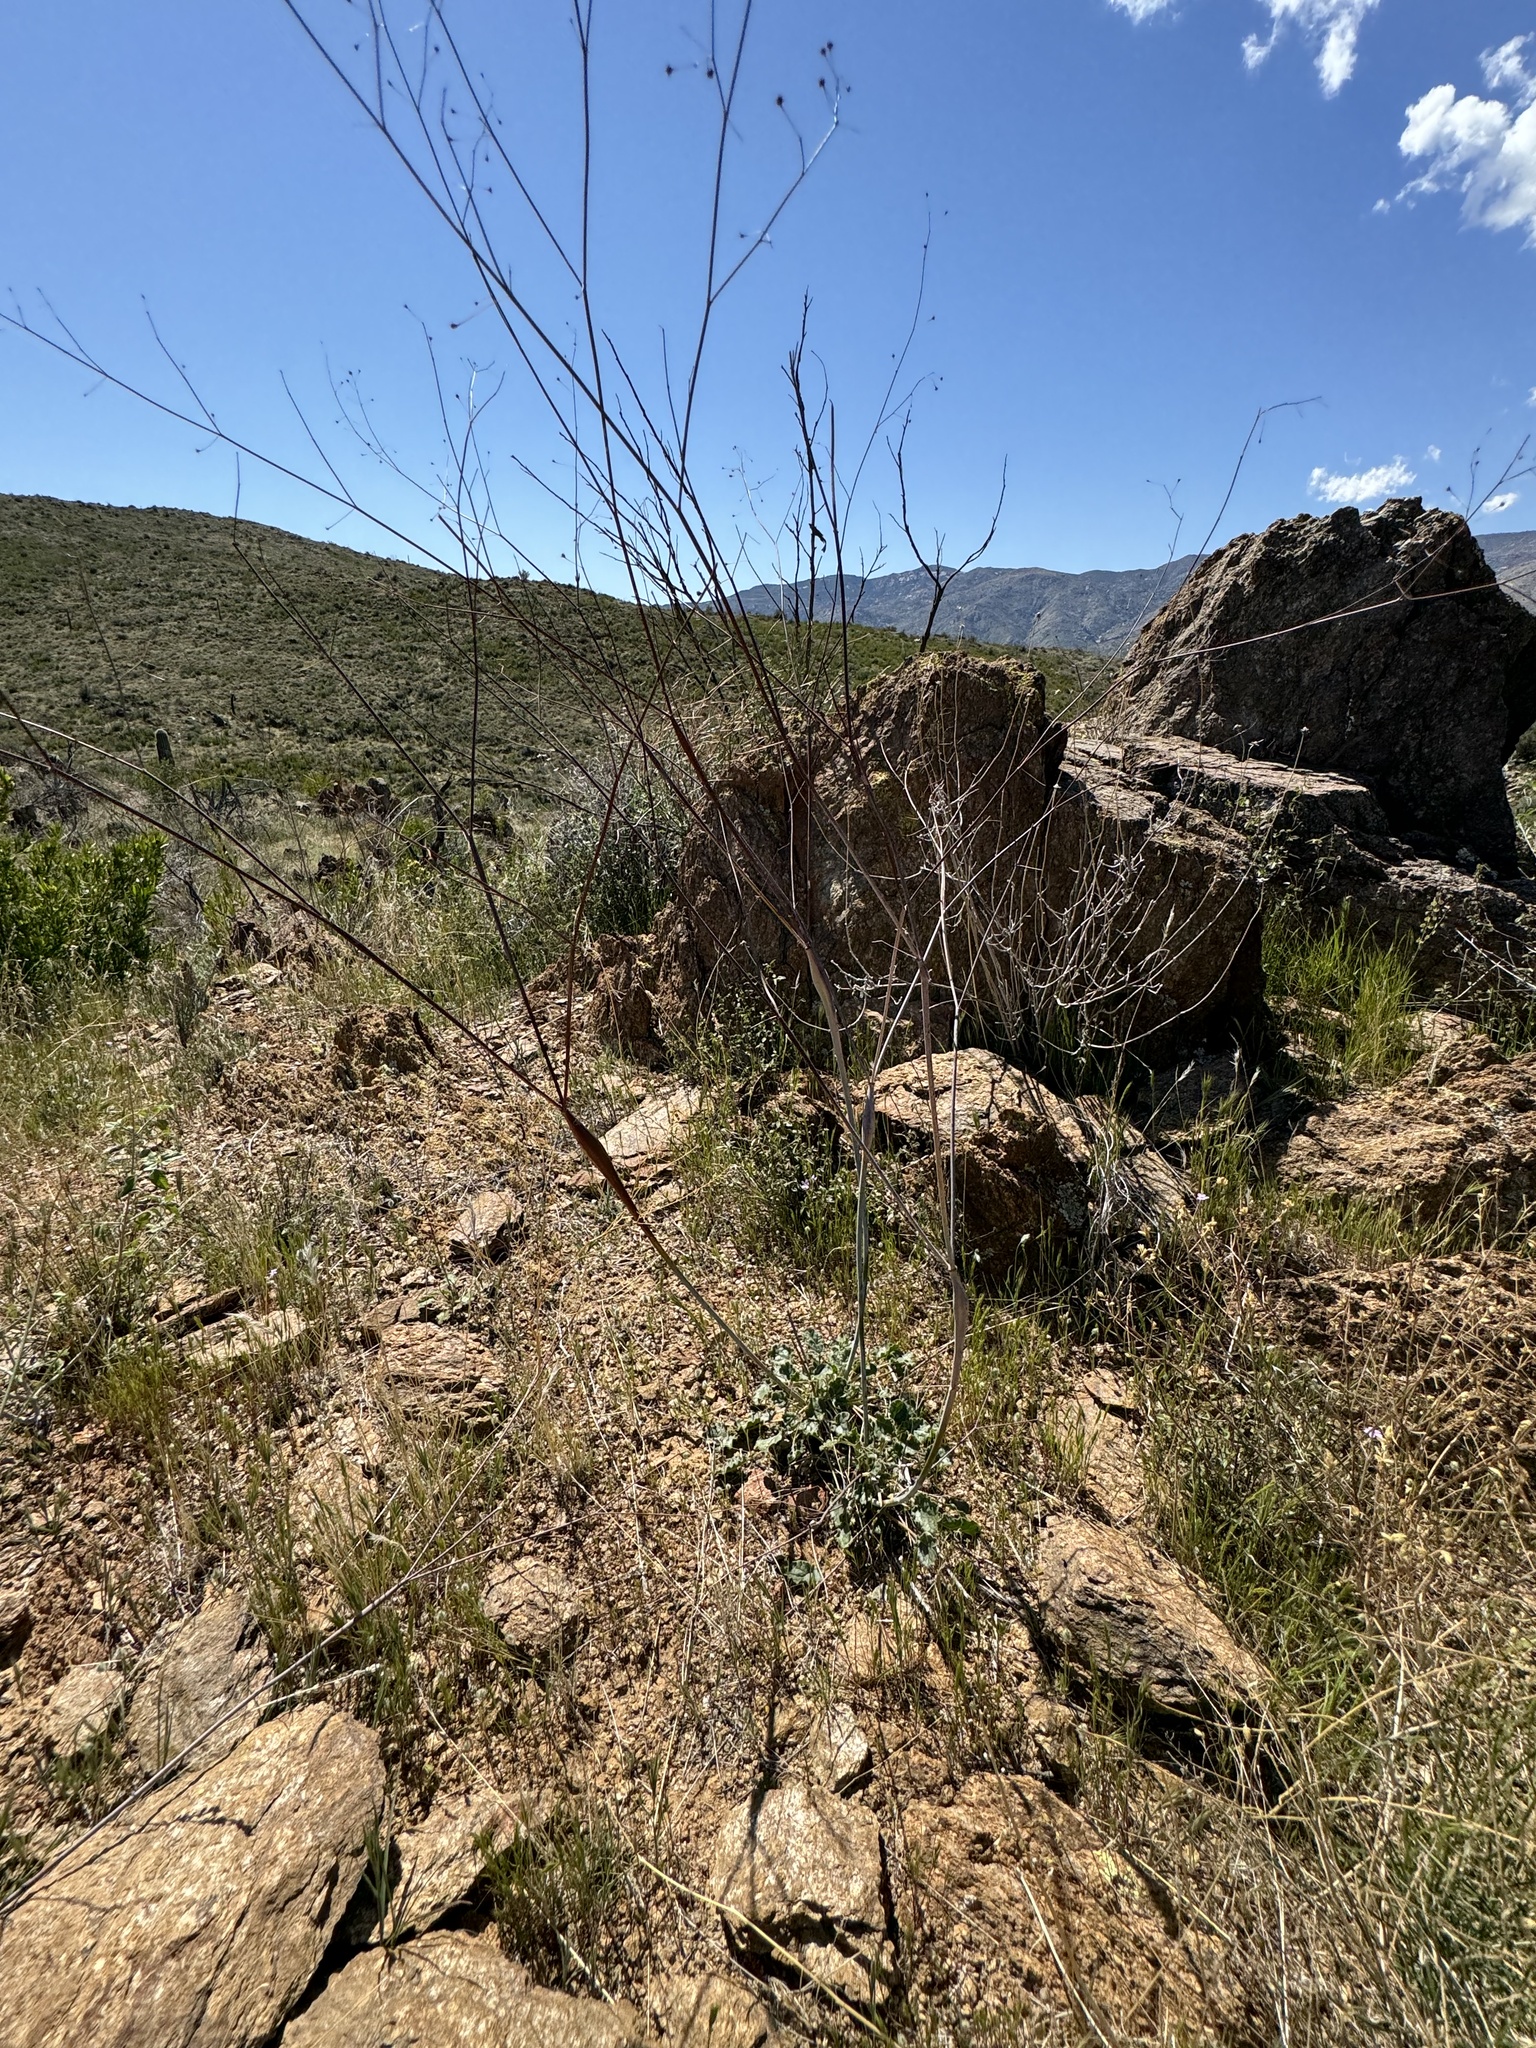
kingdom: Plantae
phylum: Tracheophyta
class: Magnoliopsida
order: Caryophyllales
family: Polygonaceae
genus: Eriogonum
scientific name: Eriogonum inflatum
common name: Desert trumpet
